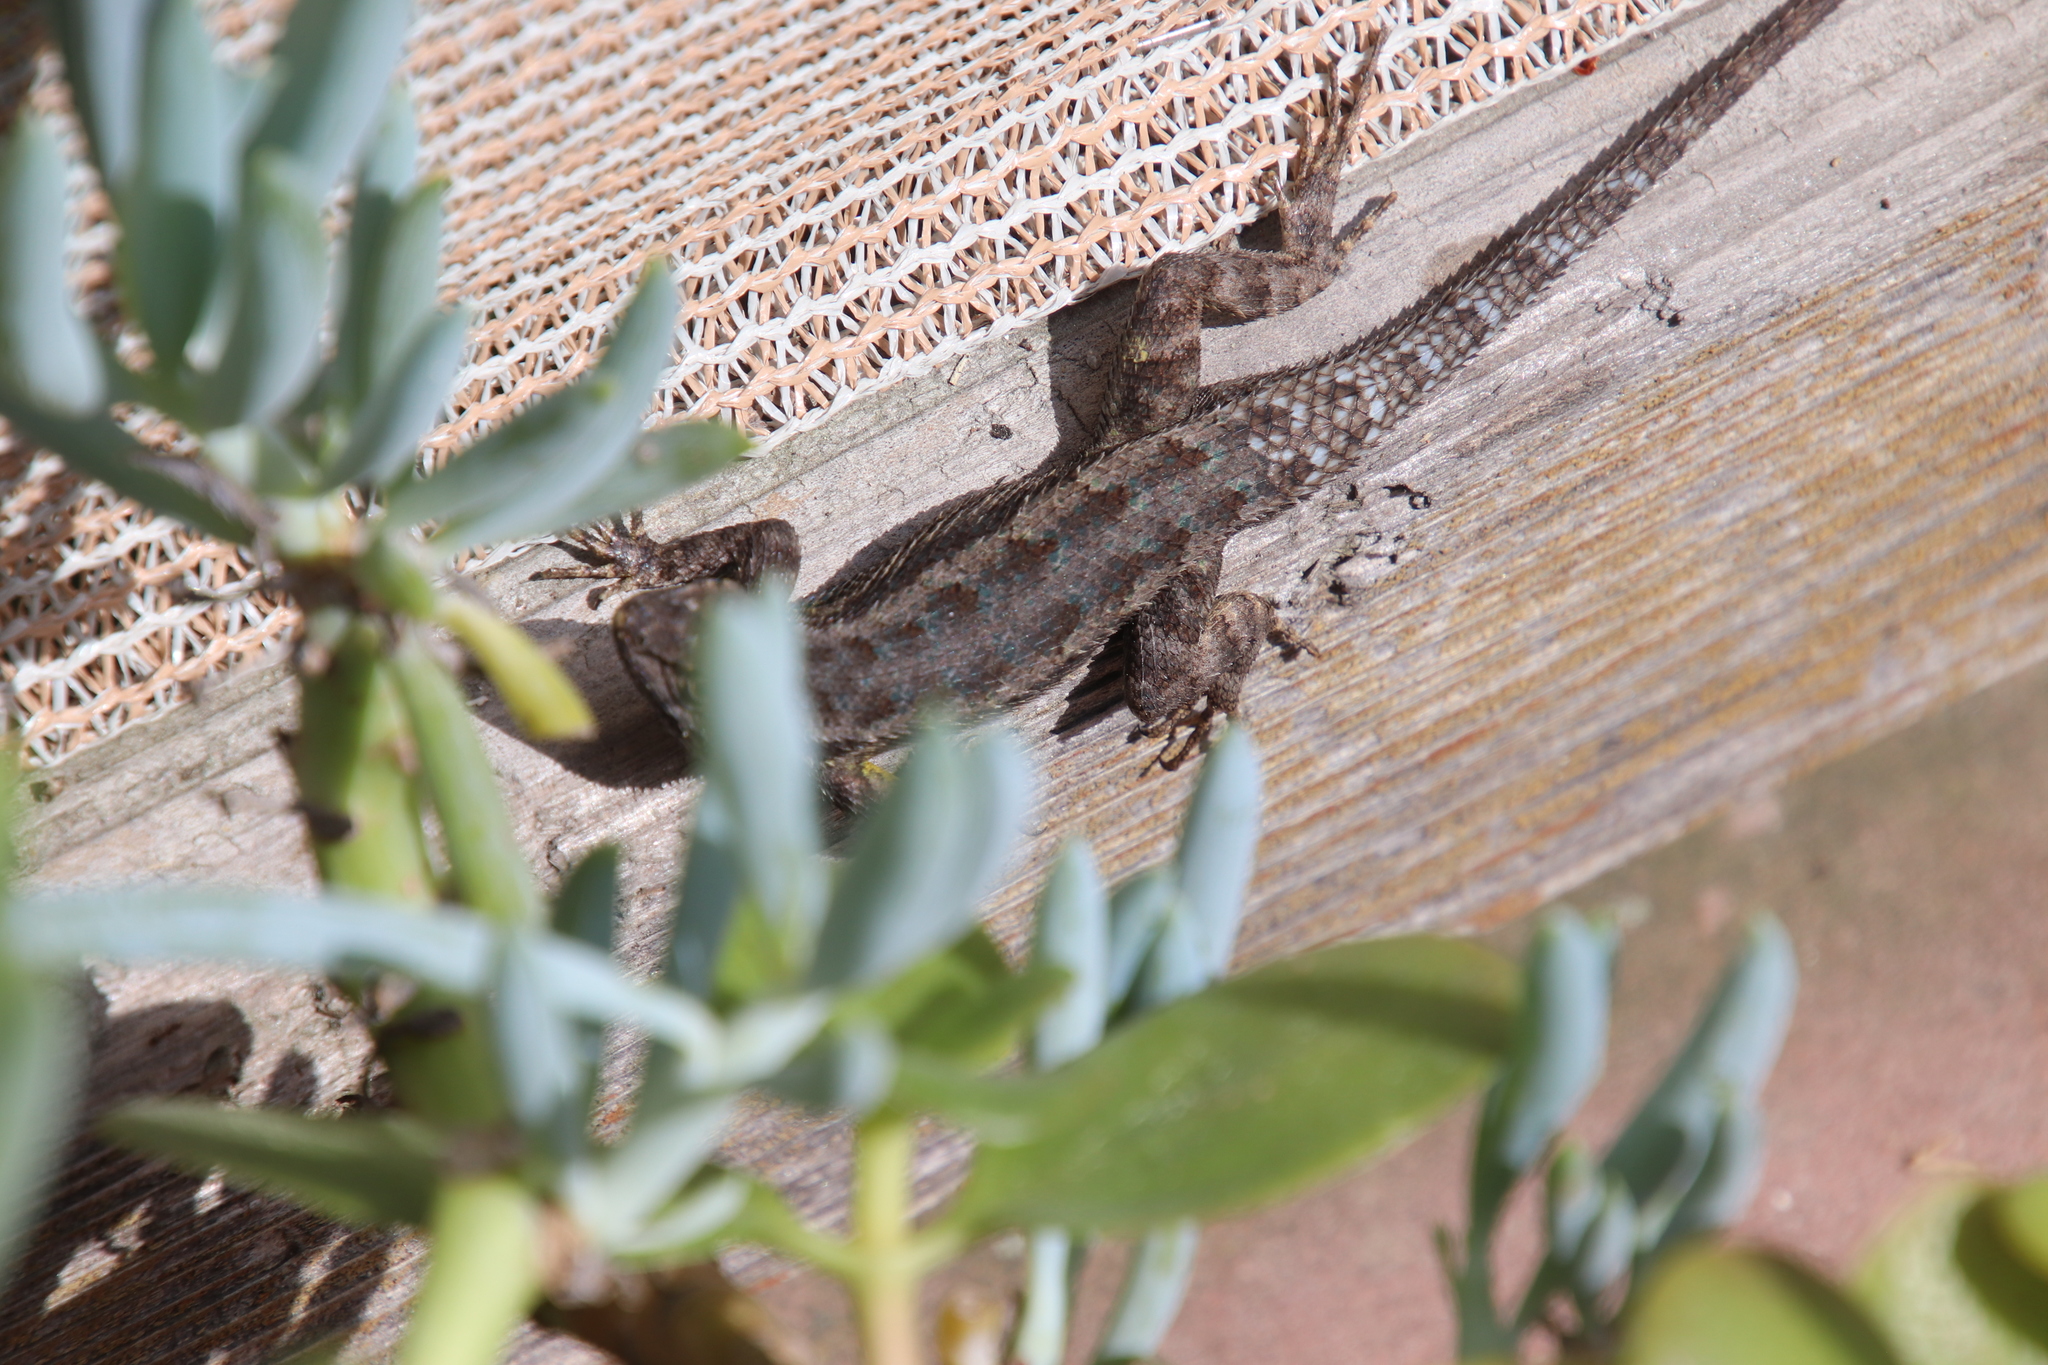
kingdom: Animalia
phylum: Chordata
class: Squamata
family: Phrynosomatidae
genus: Sceloporus
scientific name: Sceloporus occidentalis
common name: Western fence lizard
